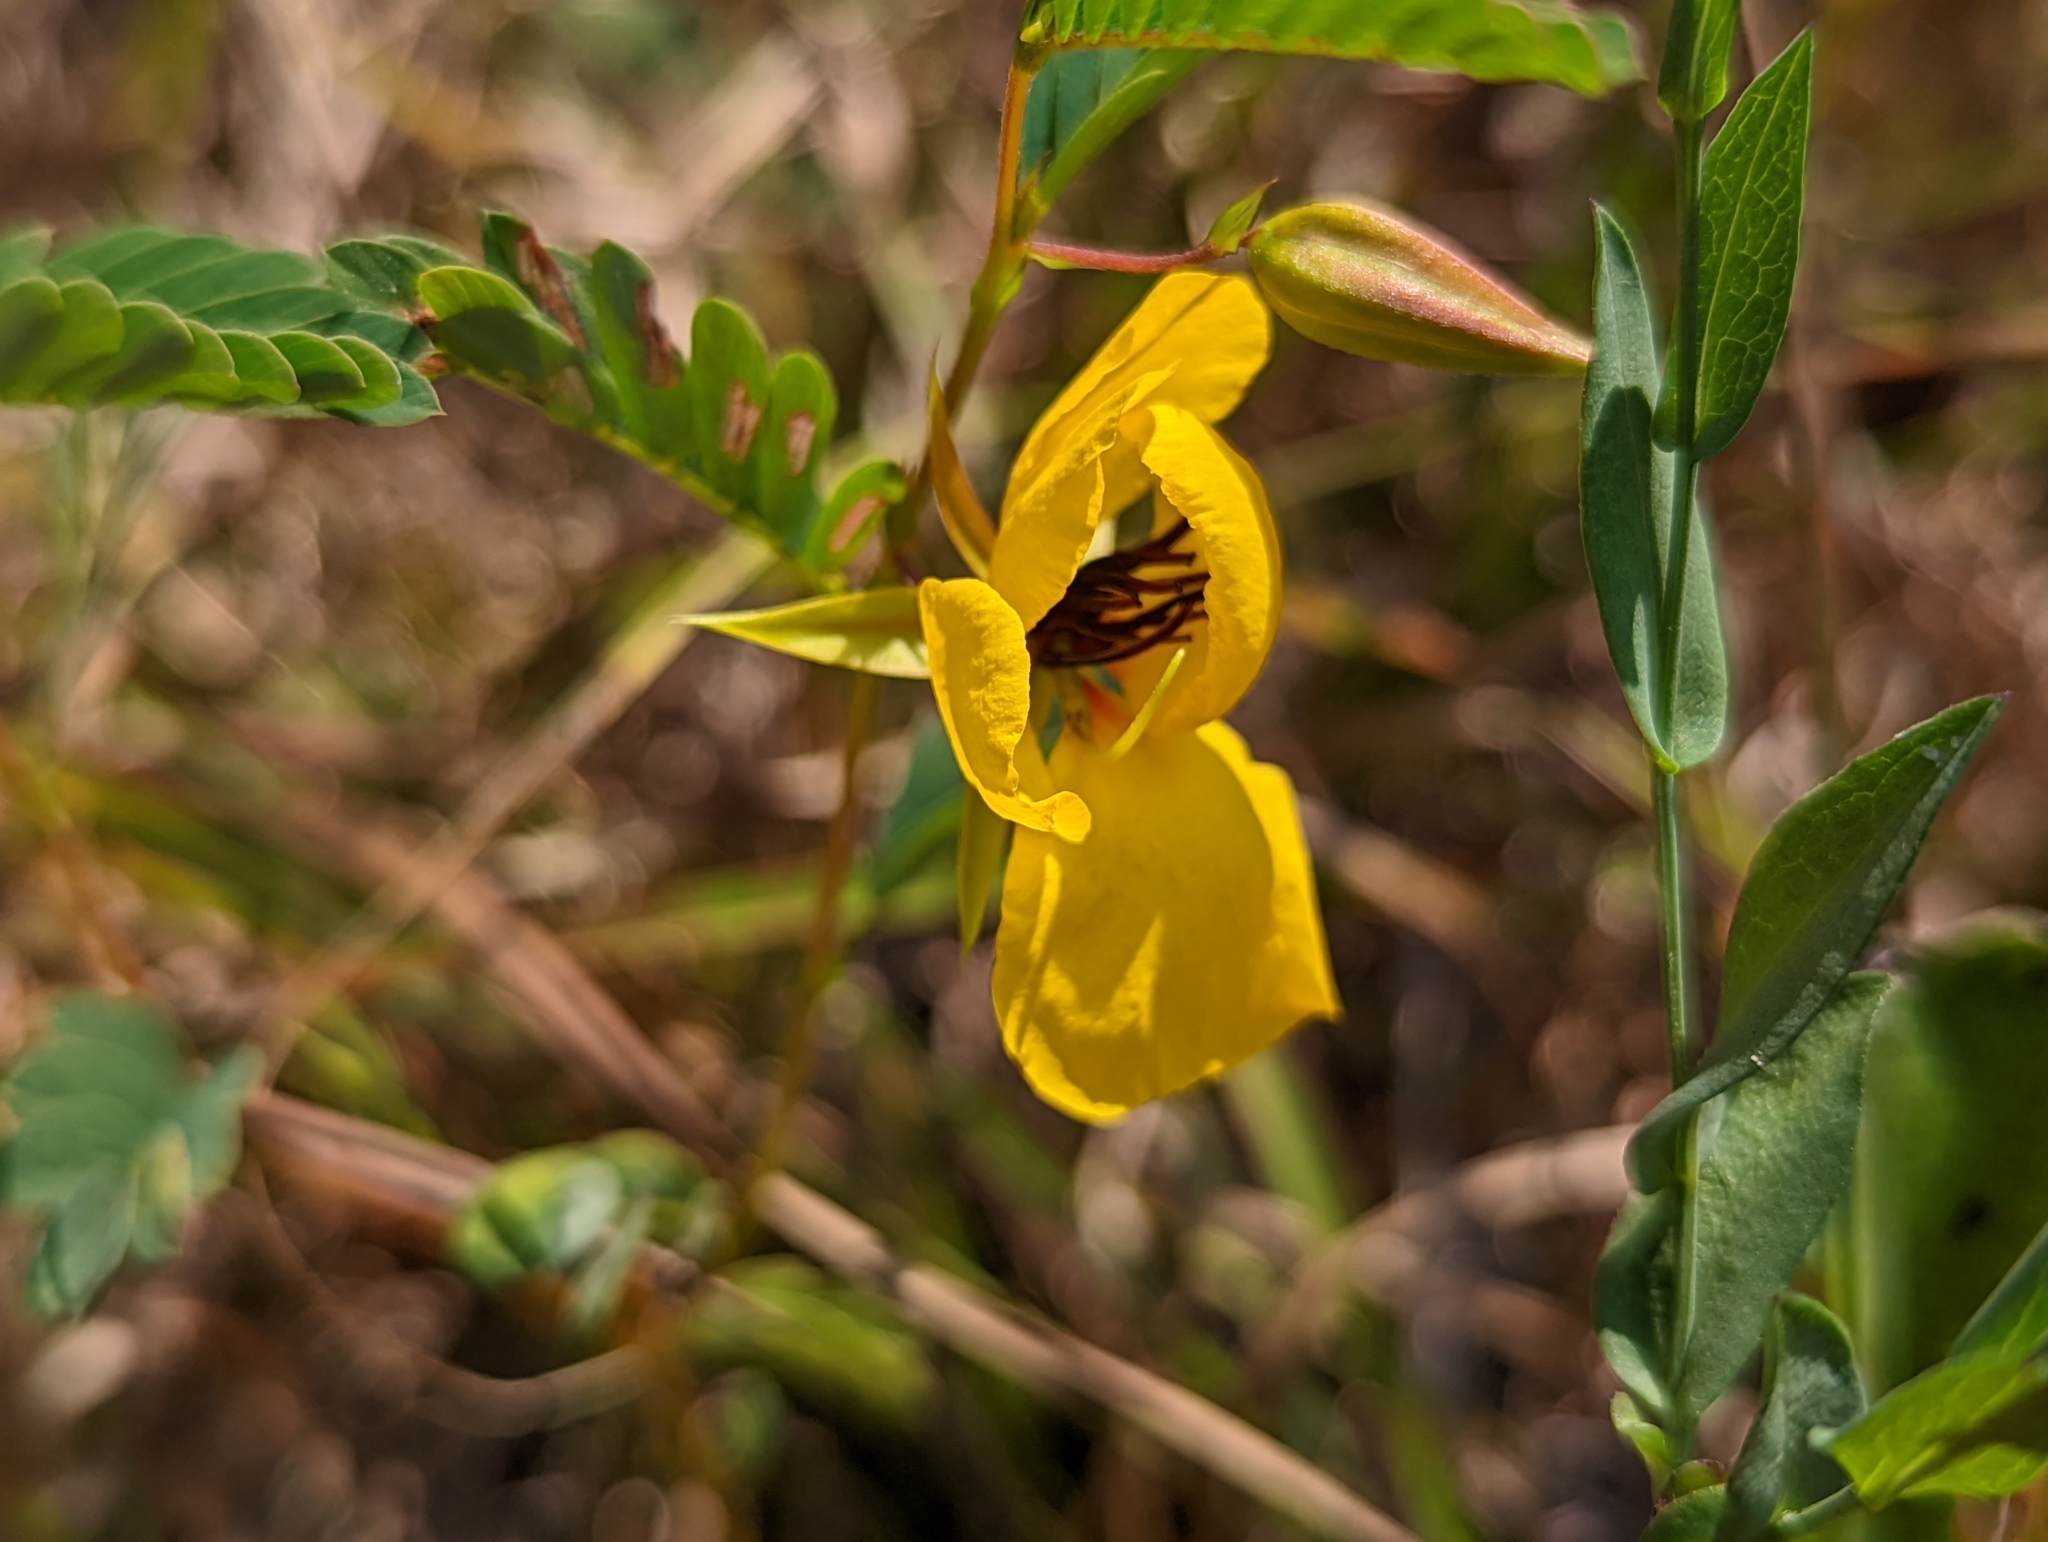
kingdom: Plantae
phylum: Tracheophyta
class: Magnoliopsida
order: Fabales
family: Fabaceae
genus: Chamaecrista
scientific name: Chamaecrista fasciculata
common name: Golden cassia
